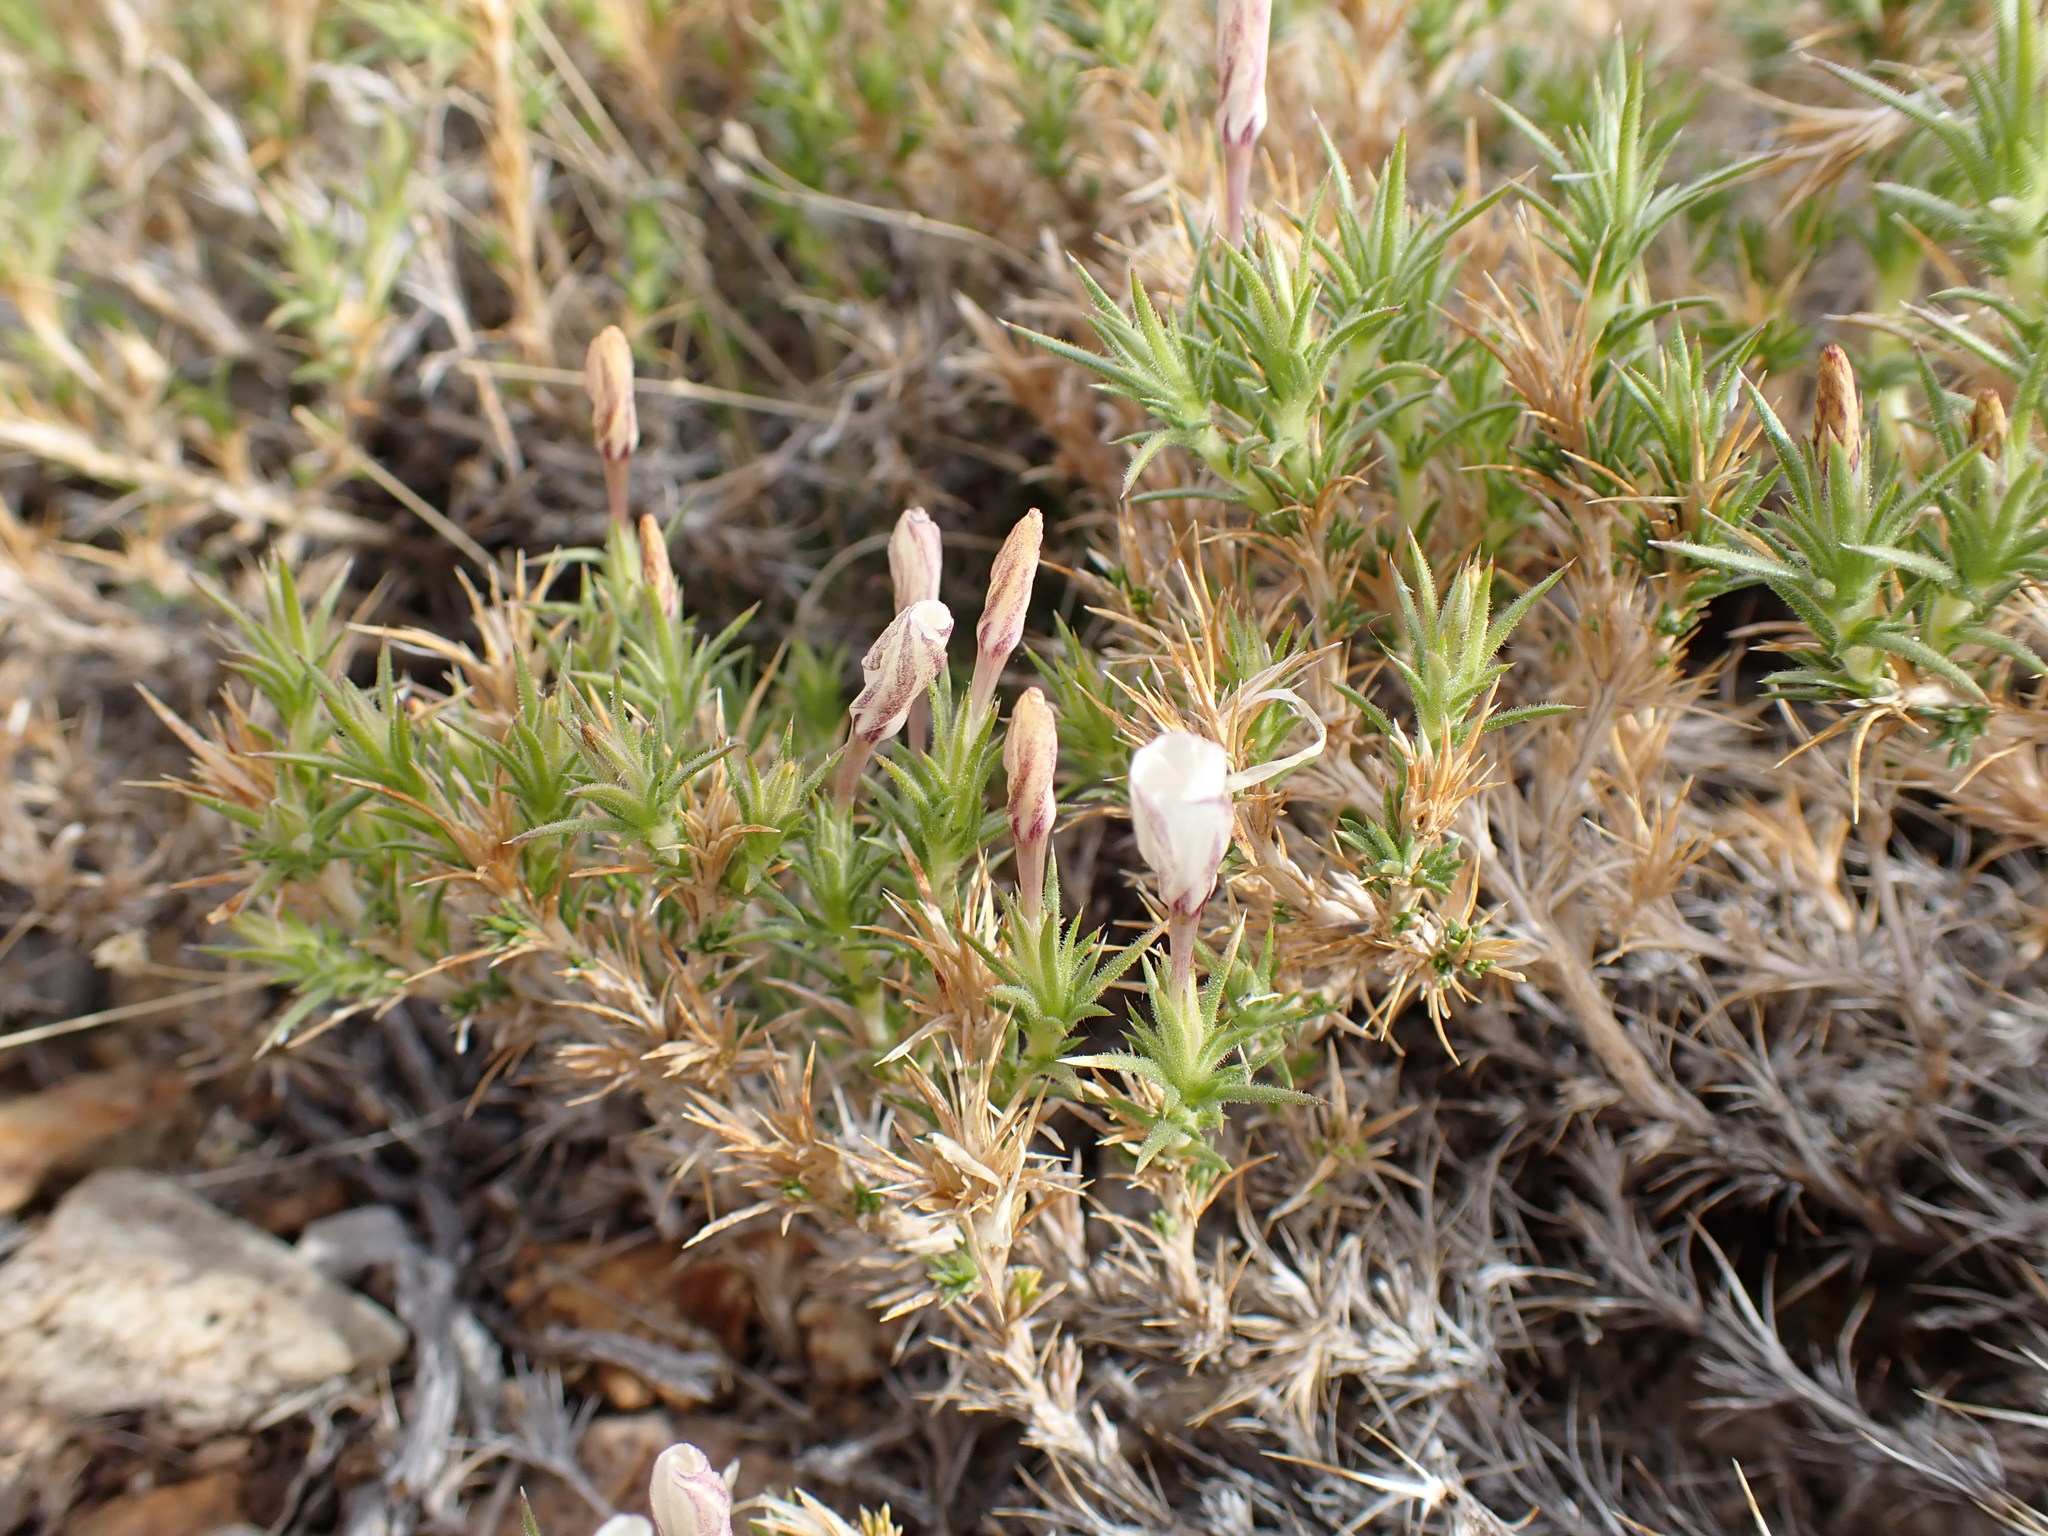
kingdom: Plantae
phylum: Tracheophyta
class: Magnoliopsida
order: Ericales
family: Polemoniaceae
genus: Linanthus
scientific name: Linanthus pungens
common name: Granite prickly phlox
